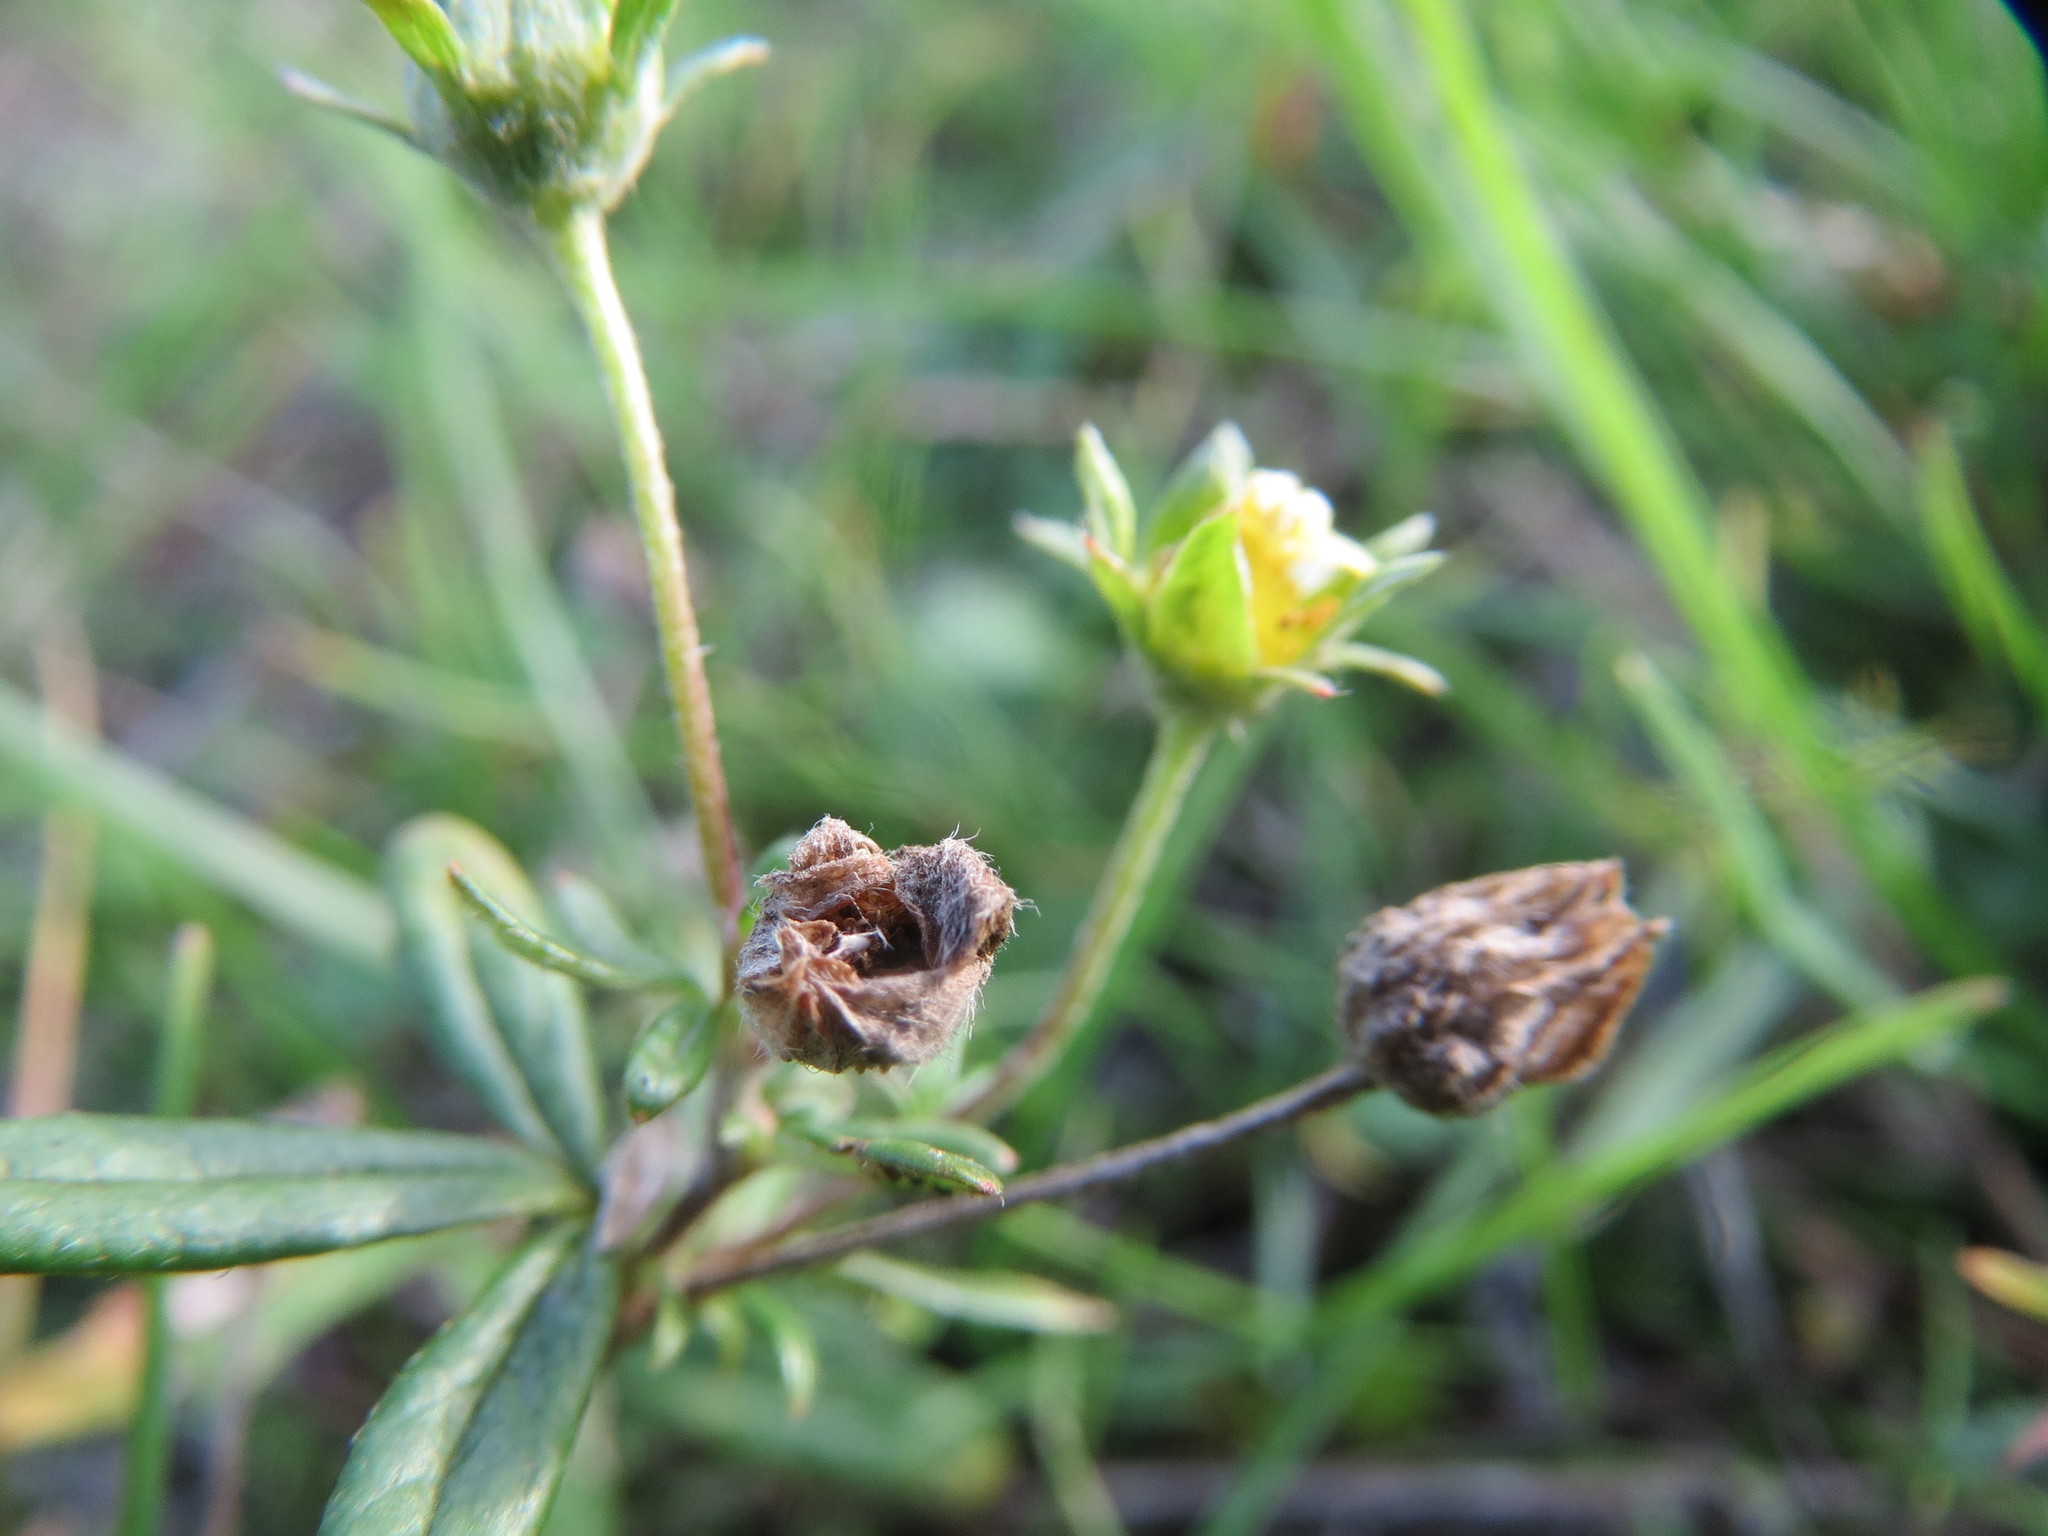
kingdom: Plantae
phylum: Tracheophyta
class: Magnoliopsida
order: Rosales
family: Rosaceae
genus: Potentilla
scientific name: Potentilla argentea
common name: Hoary cinquefoil
